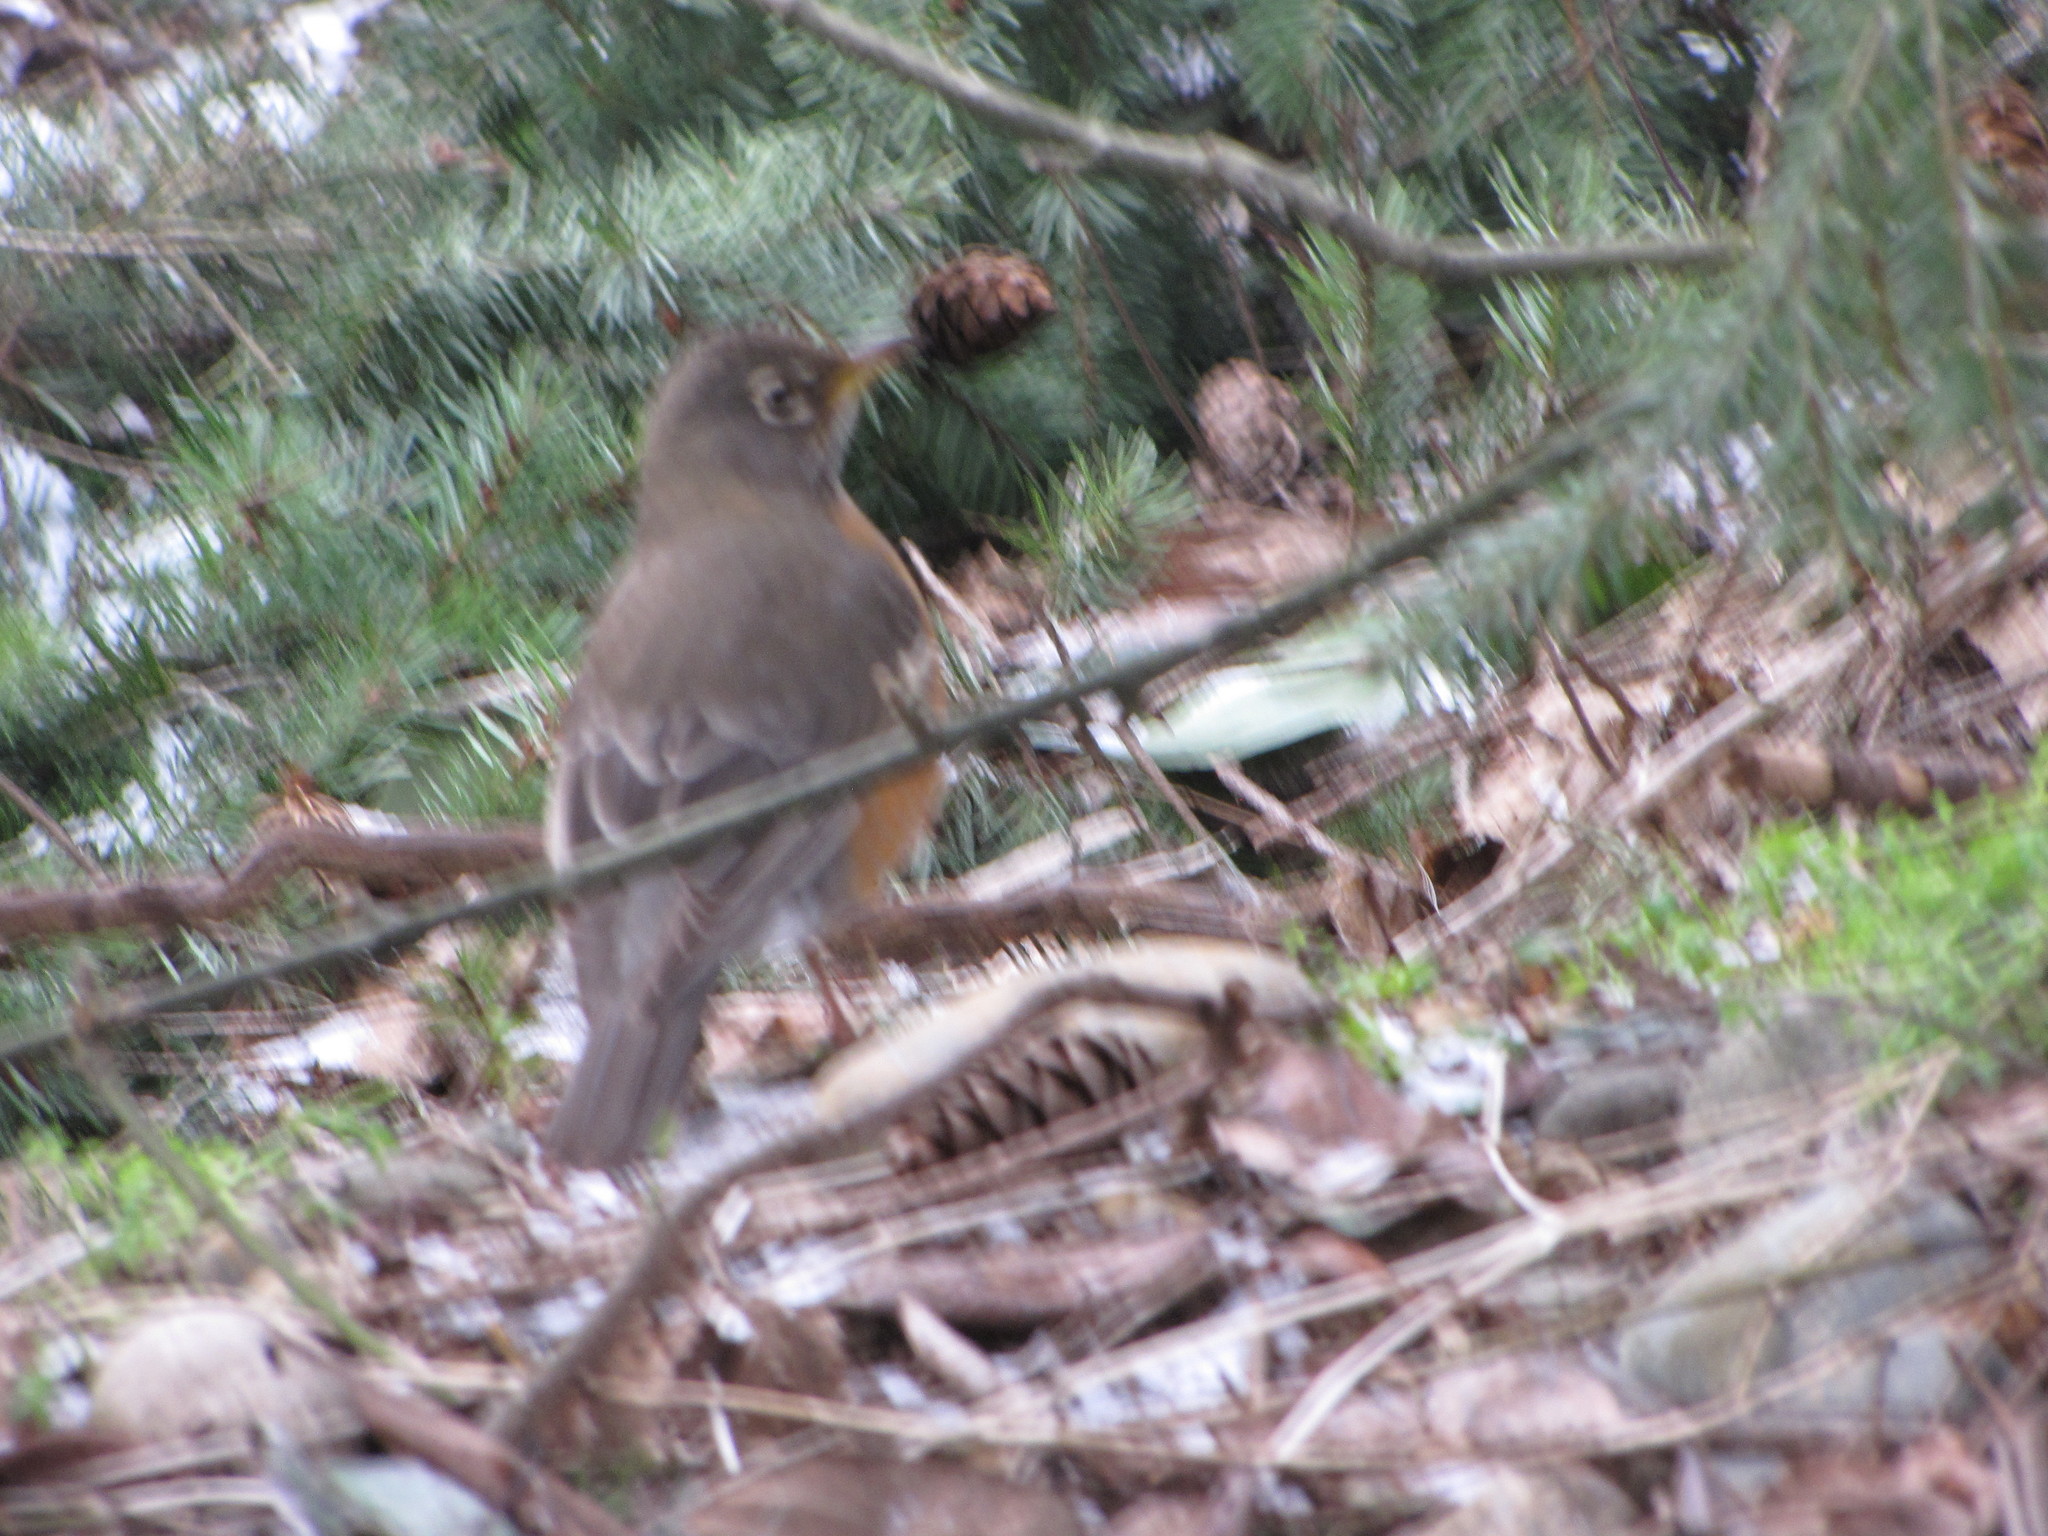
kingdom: Animalia
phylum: Chordata
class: Aves
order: Passeriformes
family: Turdidae
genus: Turdus
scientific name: Turdus migratorius
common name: American robin
